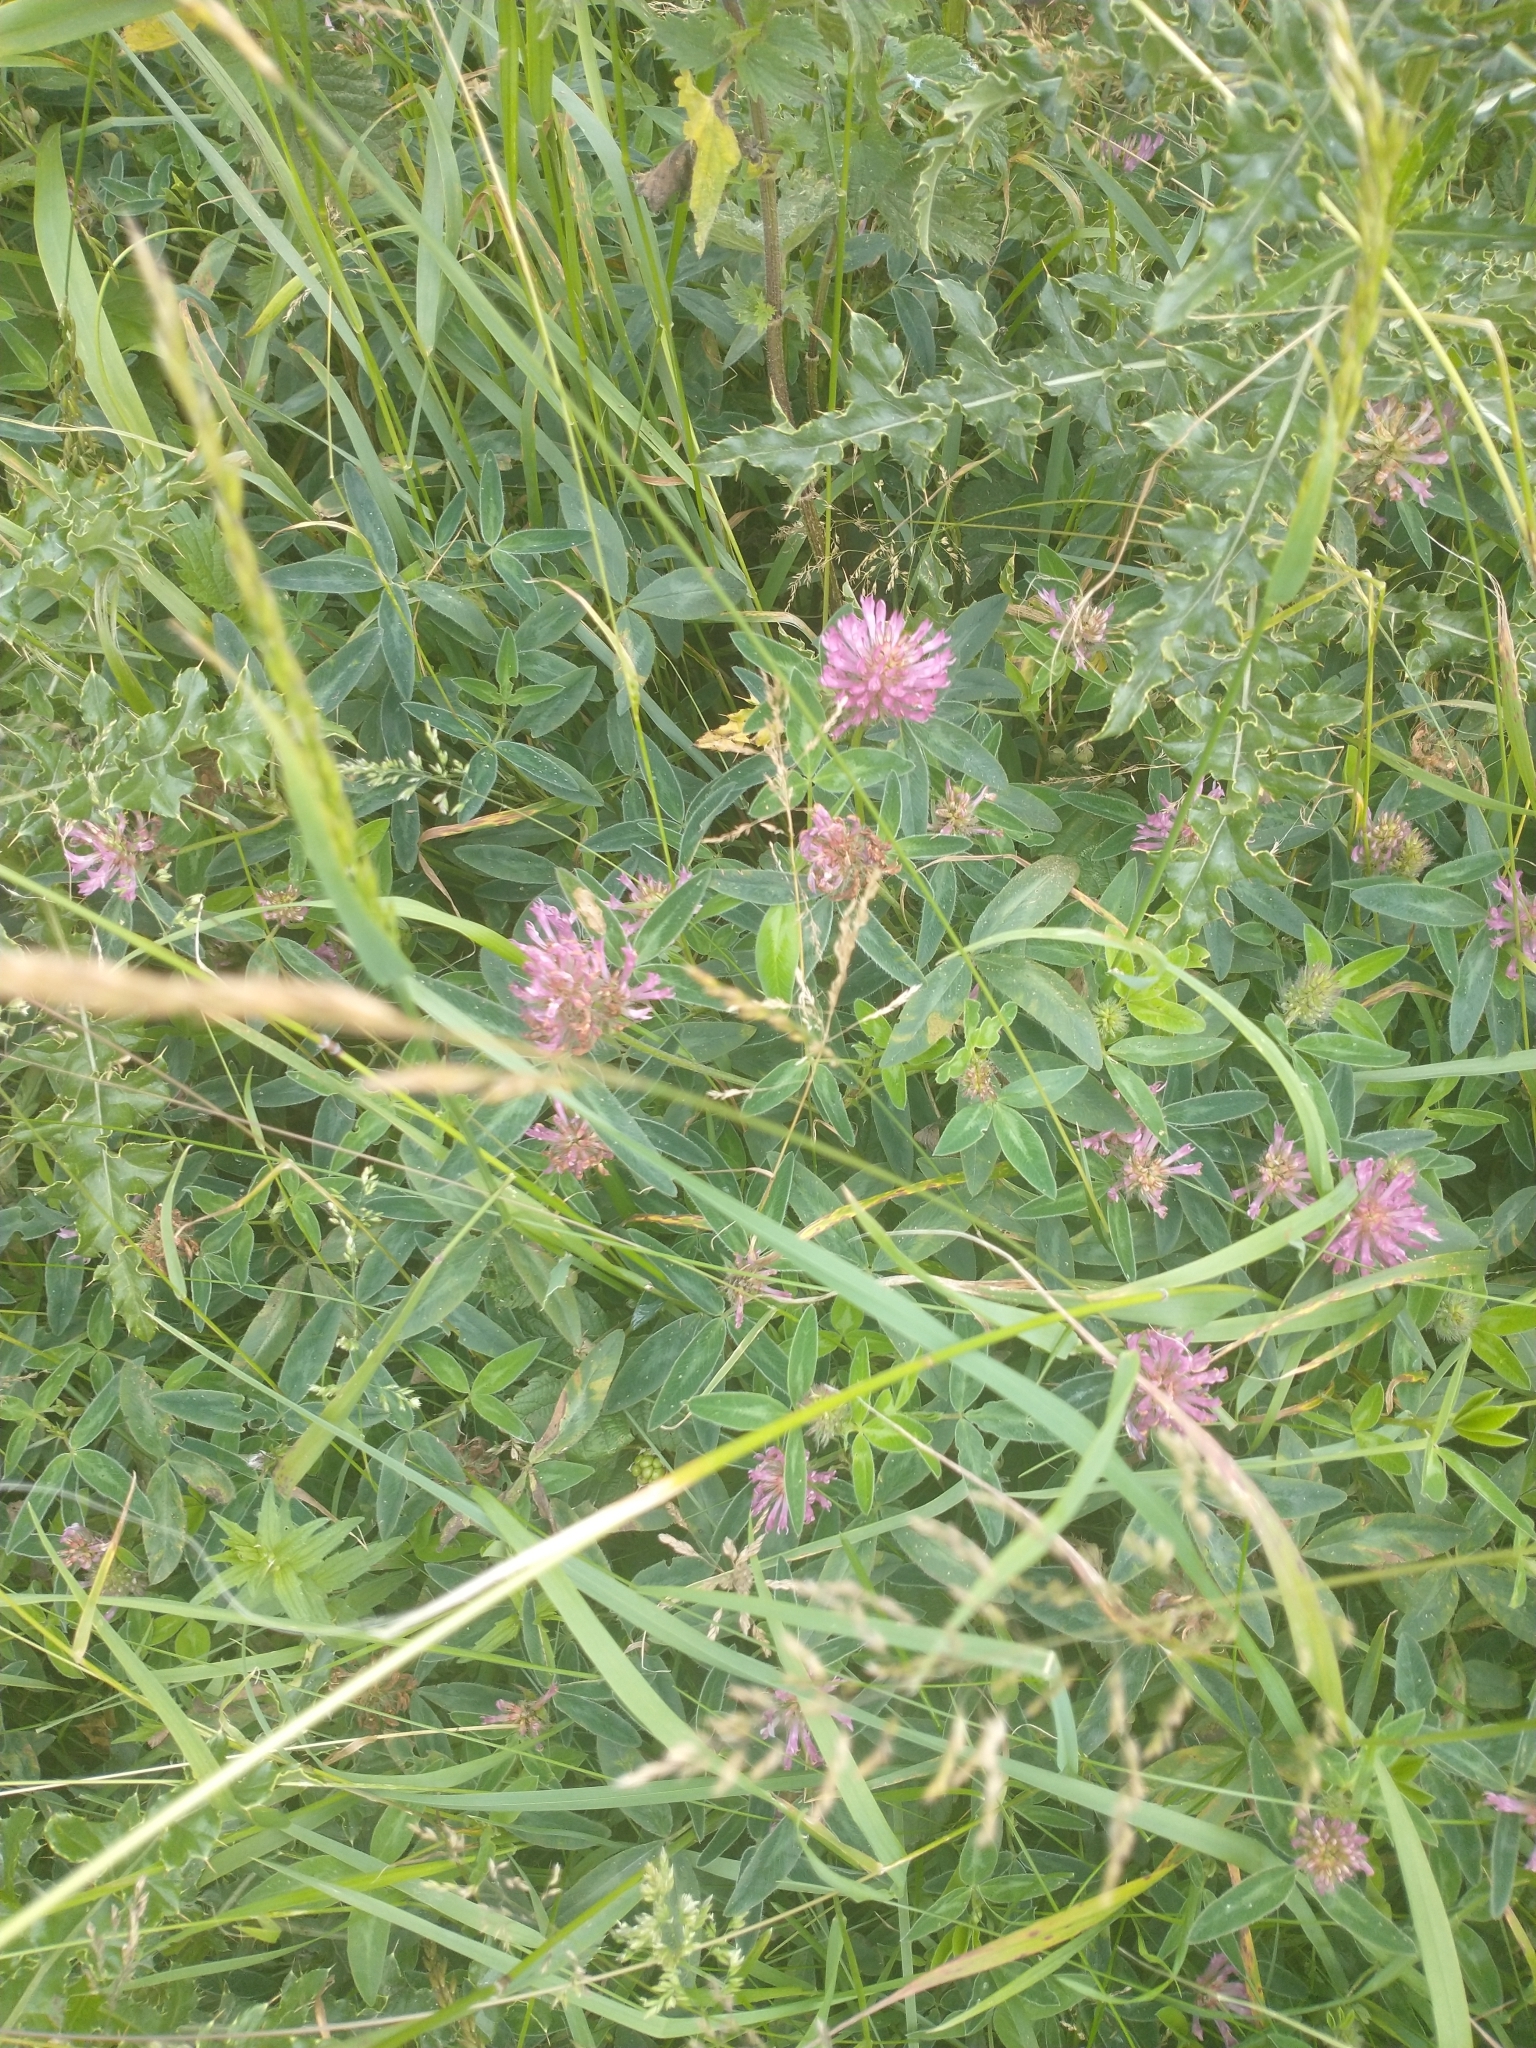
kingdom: Plantae
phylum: Tracheophyta
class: Magnoliopsida
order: Fabales
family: Fabaceae
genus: Trifolium
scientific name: Trifolium medium
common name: Zigzag clover
